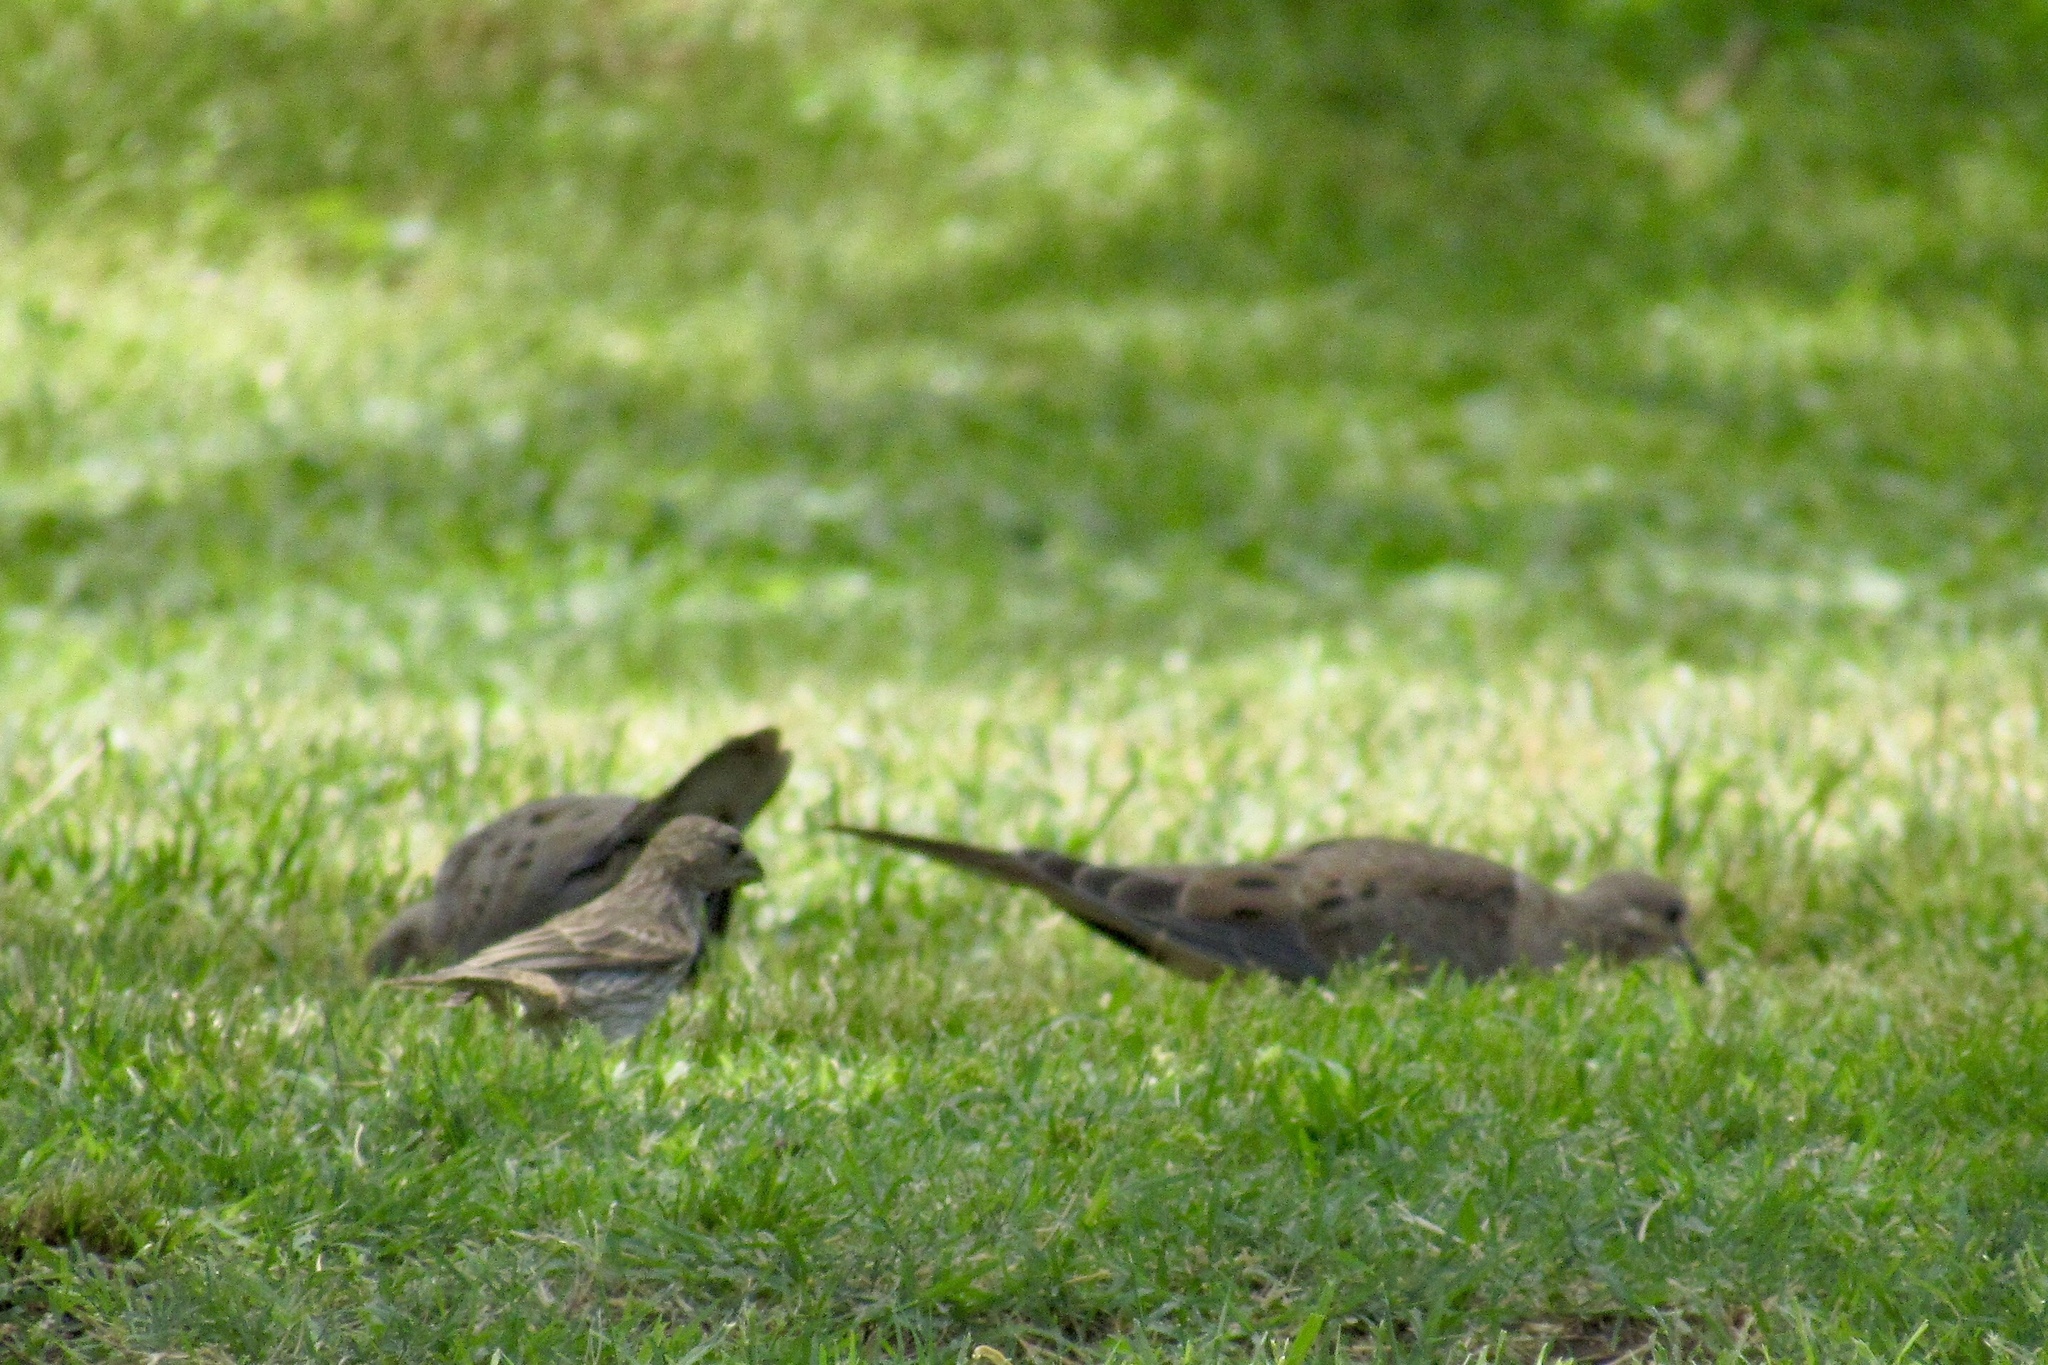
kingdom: Animalia
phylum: Chordata
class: Aves
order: Columbiformes
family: Columbidae
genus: Zenaida
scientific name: Zenaida macroura
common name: Mourning dove
